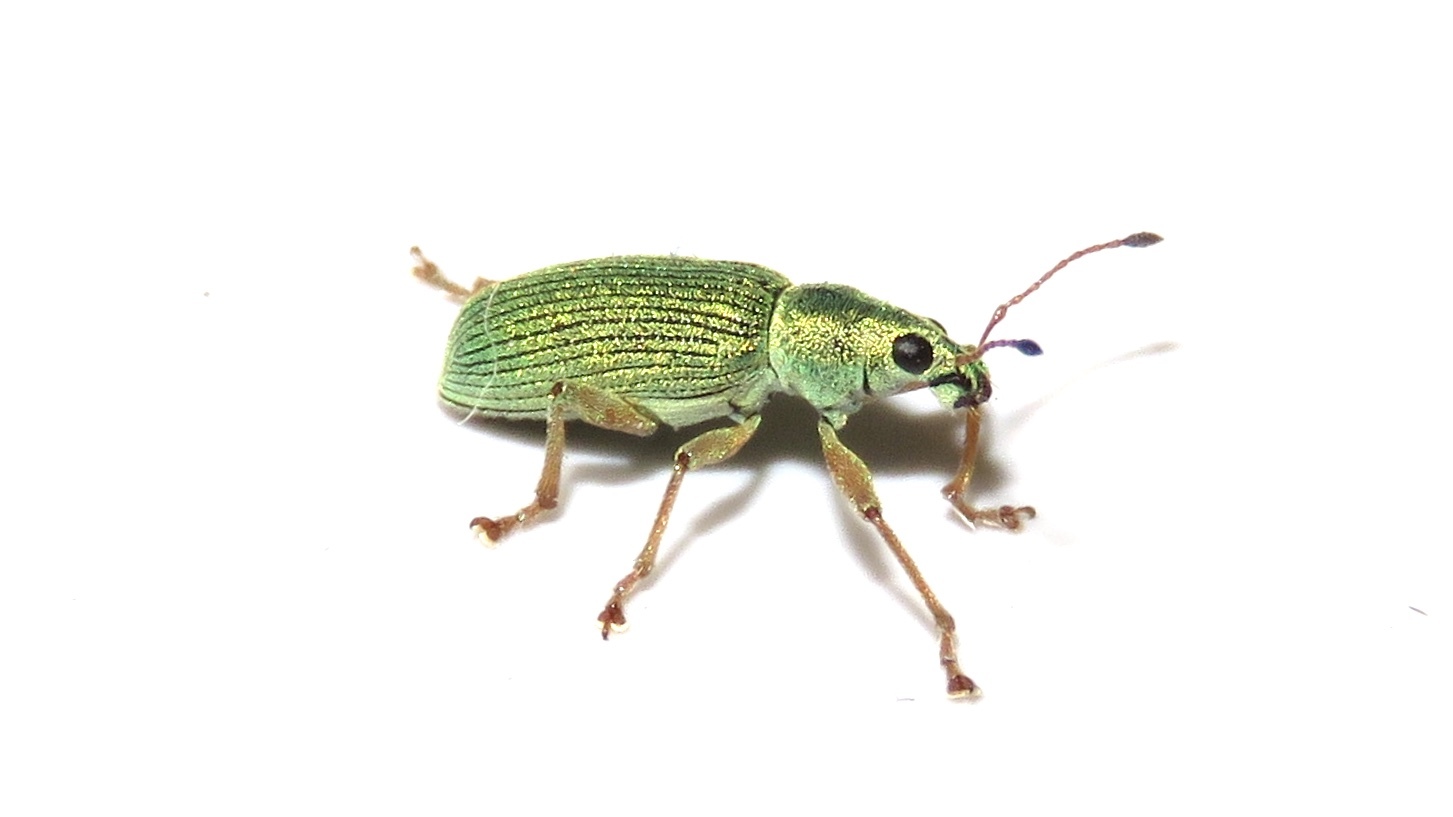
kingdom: Animalia
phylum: Arthropoda
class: Insecta
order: Coleoptera
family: Curculionidae
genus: Polydrusus
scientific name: Polydrusus formosus
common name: Weevil
